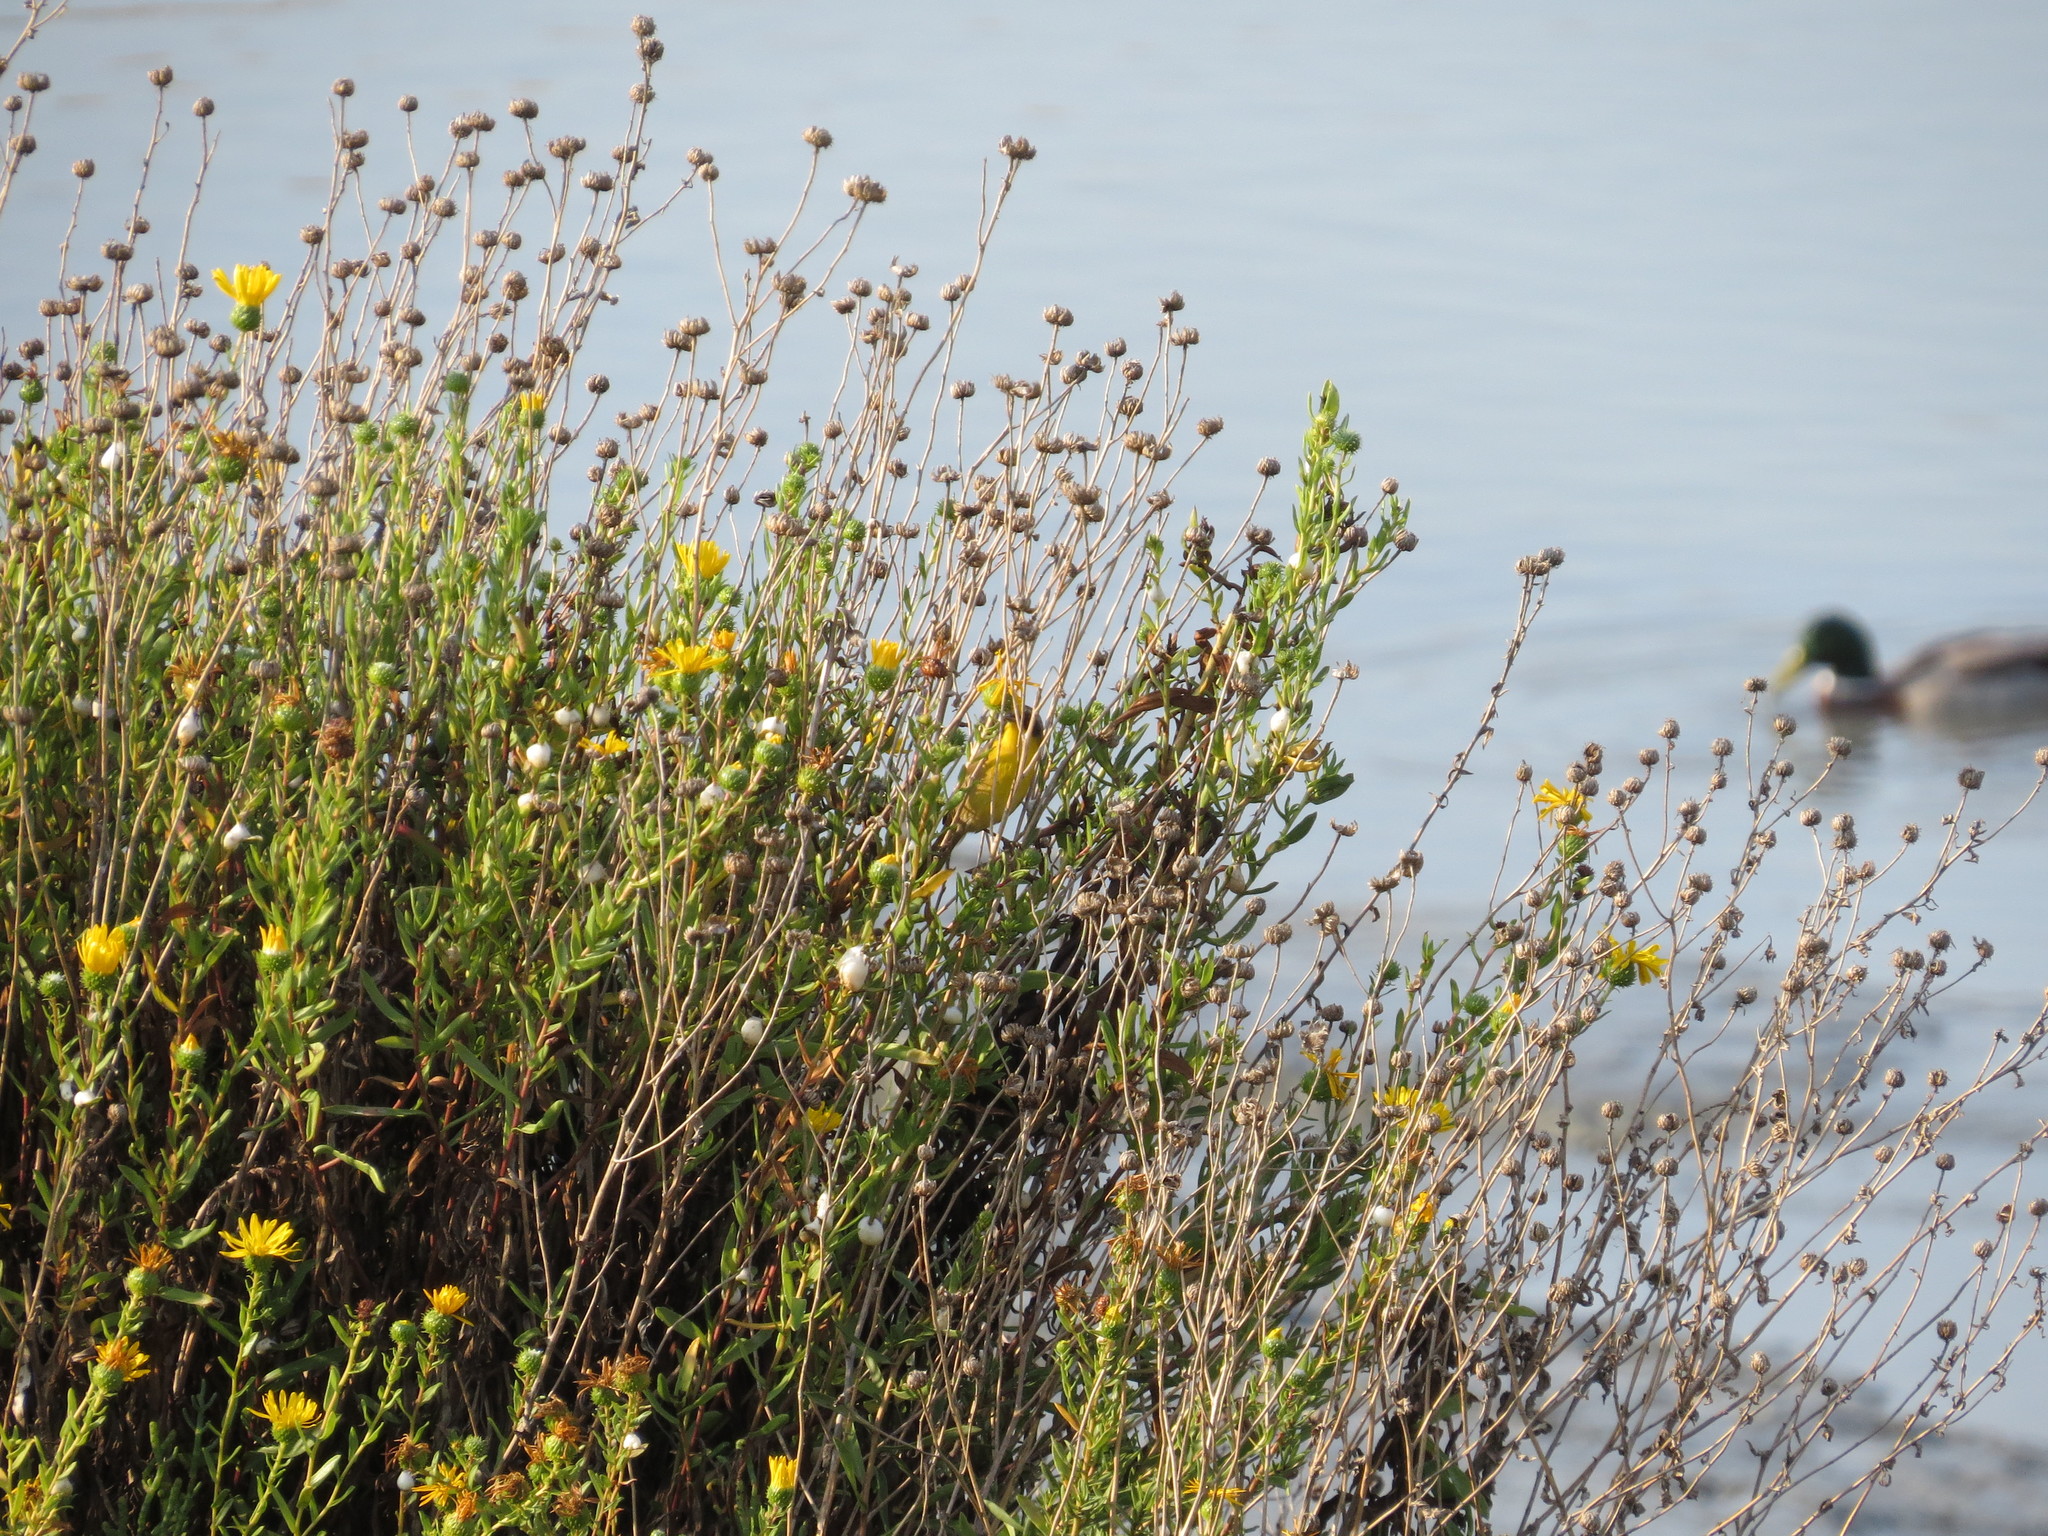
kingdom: Animalia
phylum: Chordata
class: Aves
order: Passeriformes
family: Parulidae
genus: Geothlypis
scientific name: Geothlypis trichas
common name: Common yellowthroat
